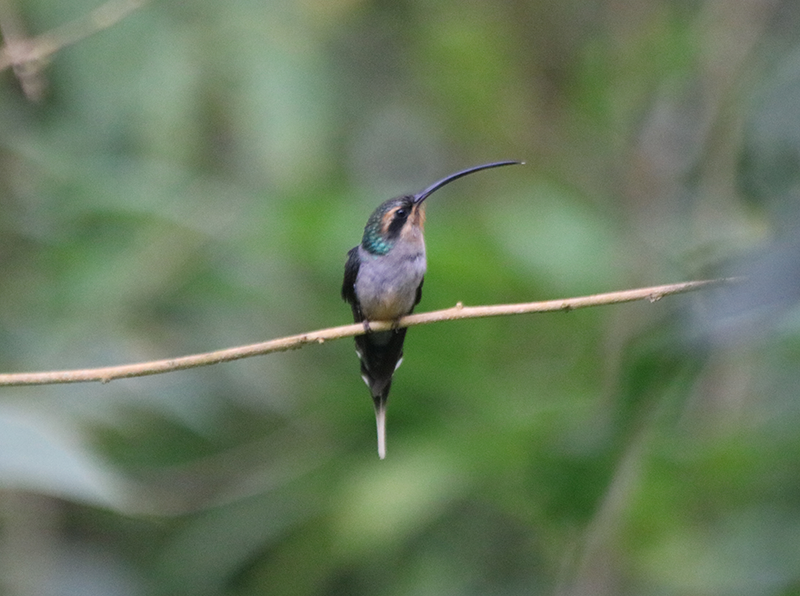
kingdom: Animalia
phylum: Chordata
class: Aves
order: Apodiformes
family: Trochilidae
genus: Phaethornis
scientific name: Phaethornis guy
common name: Green hermit
